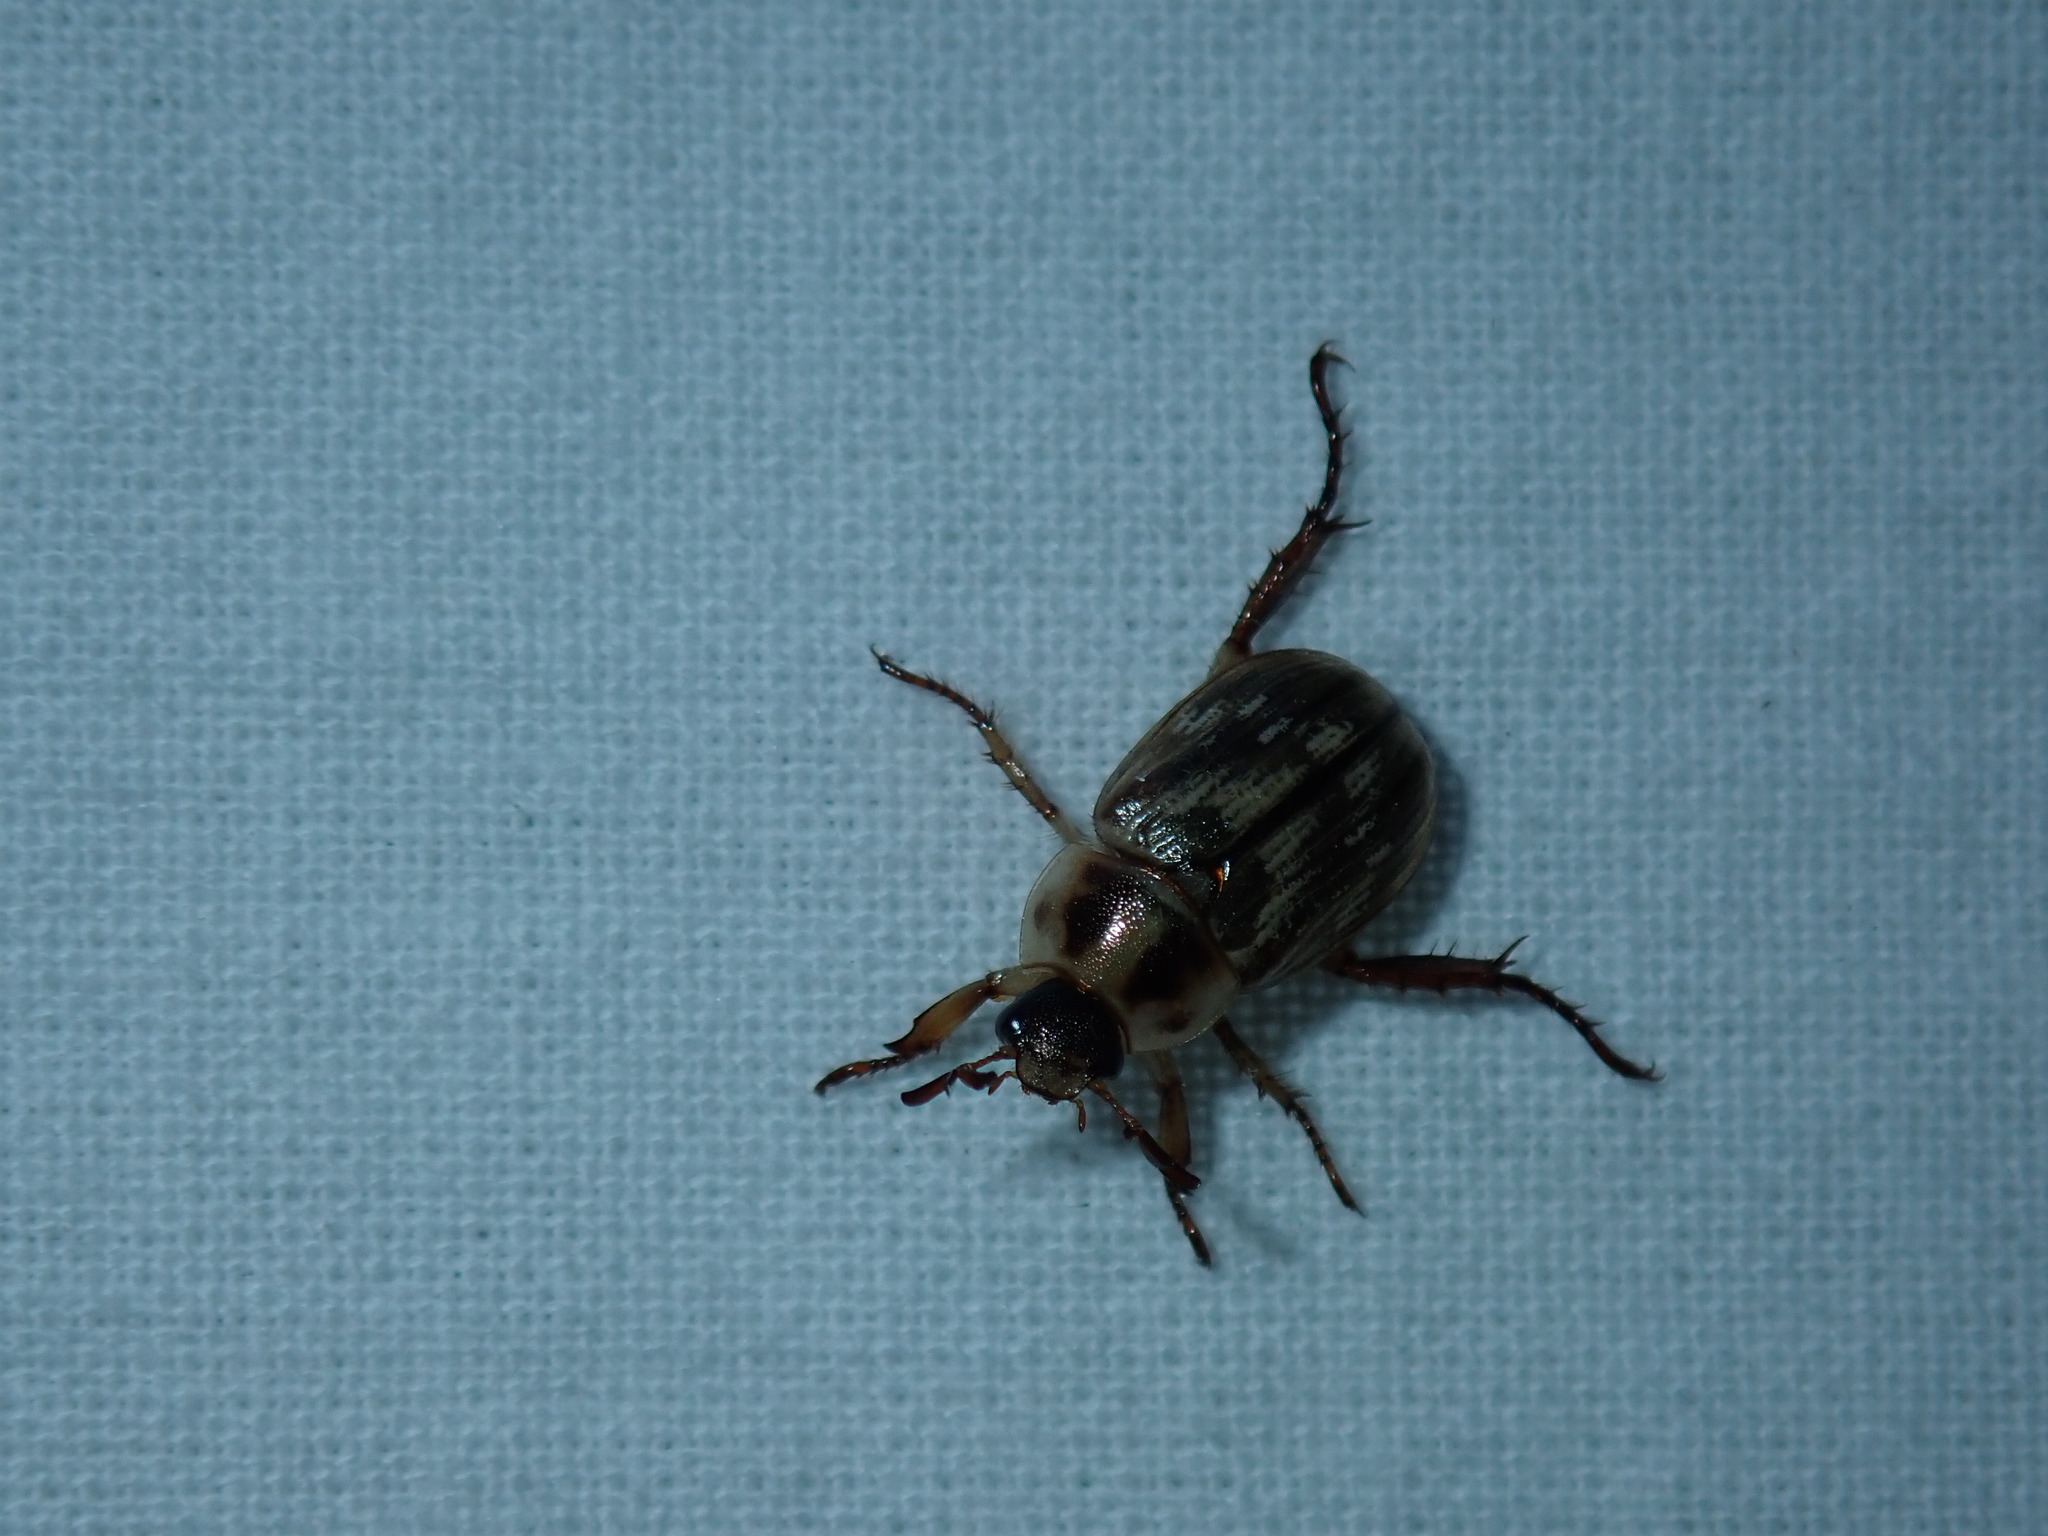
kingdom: Animalia
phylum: Arthropoda
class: Insecta
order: Coleoptera
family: Scarabaeidae
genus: Exomala
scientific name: Exomala orientalis
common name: Oriental beetle
